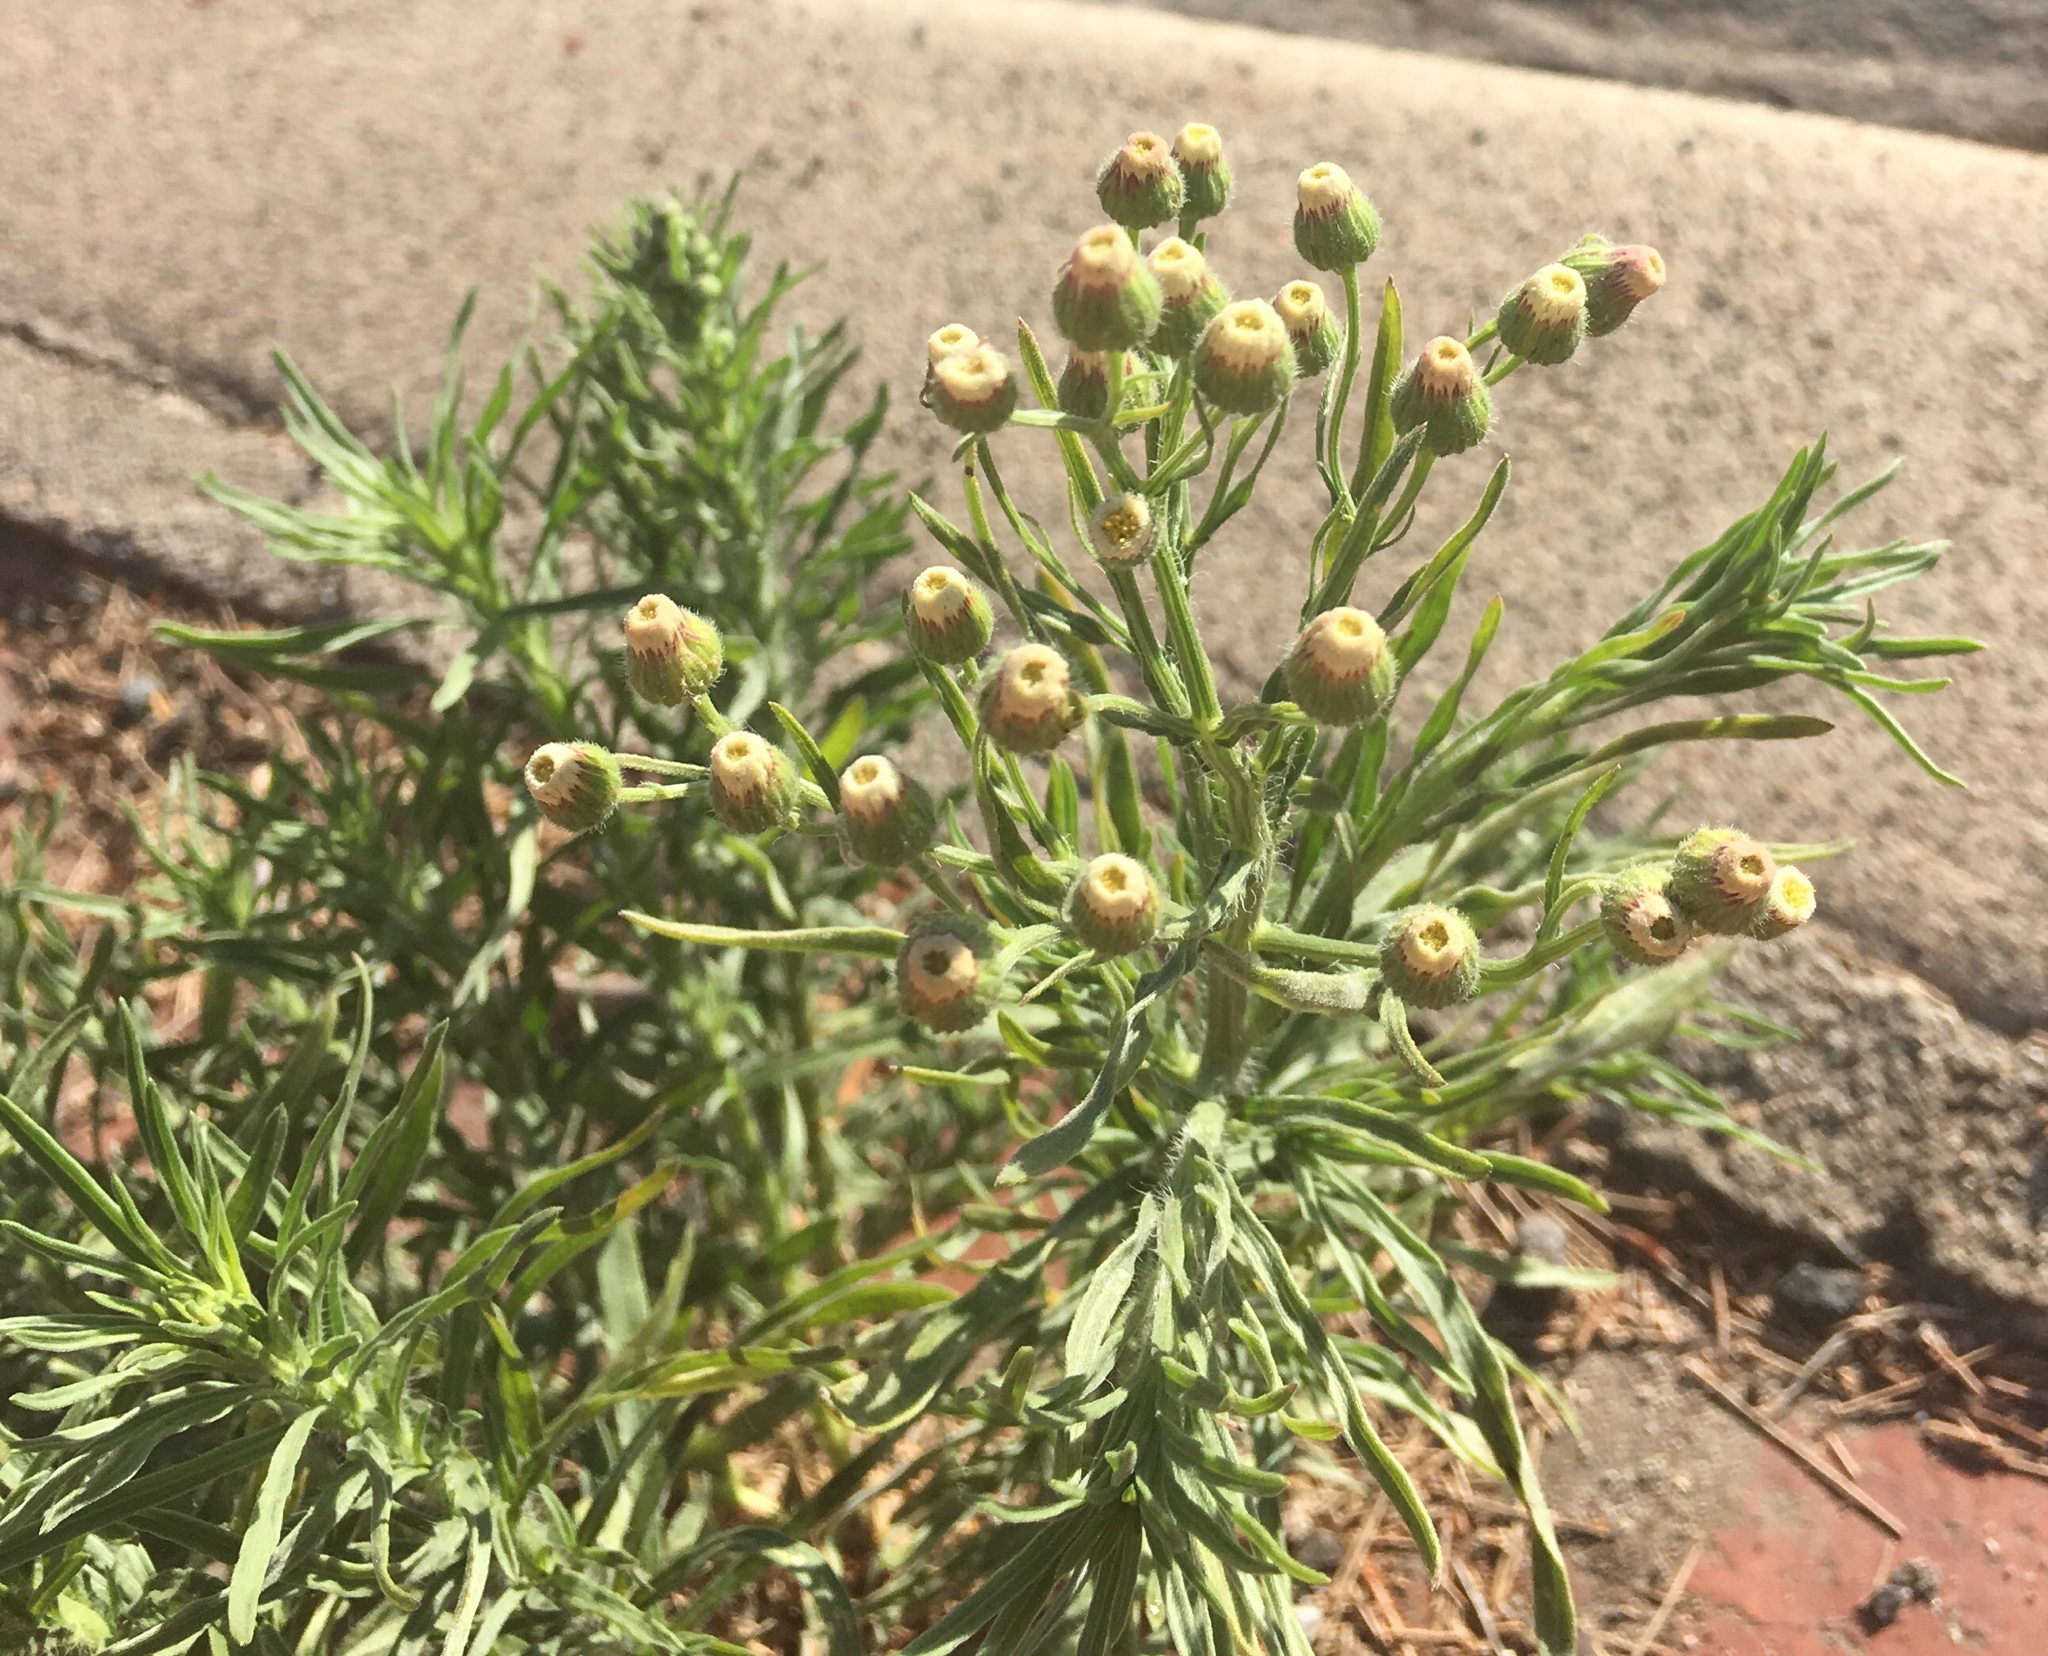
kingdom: Plantae
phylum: Tracheophyta
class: Magnoliopsida
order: Asterales
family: Asteraceae
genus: Erigeron
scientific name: Erigeron bonariensis
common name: Argentine fleabane
